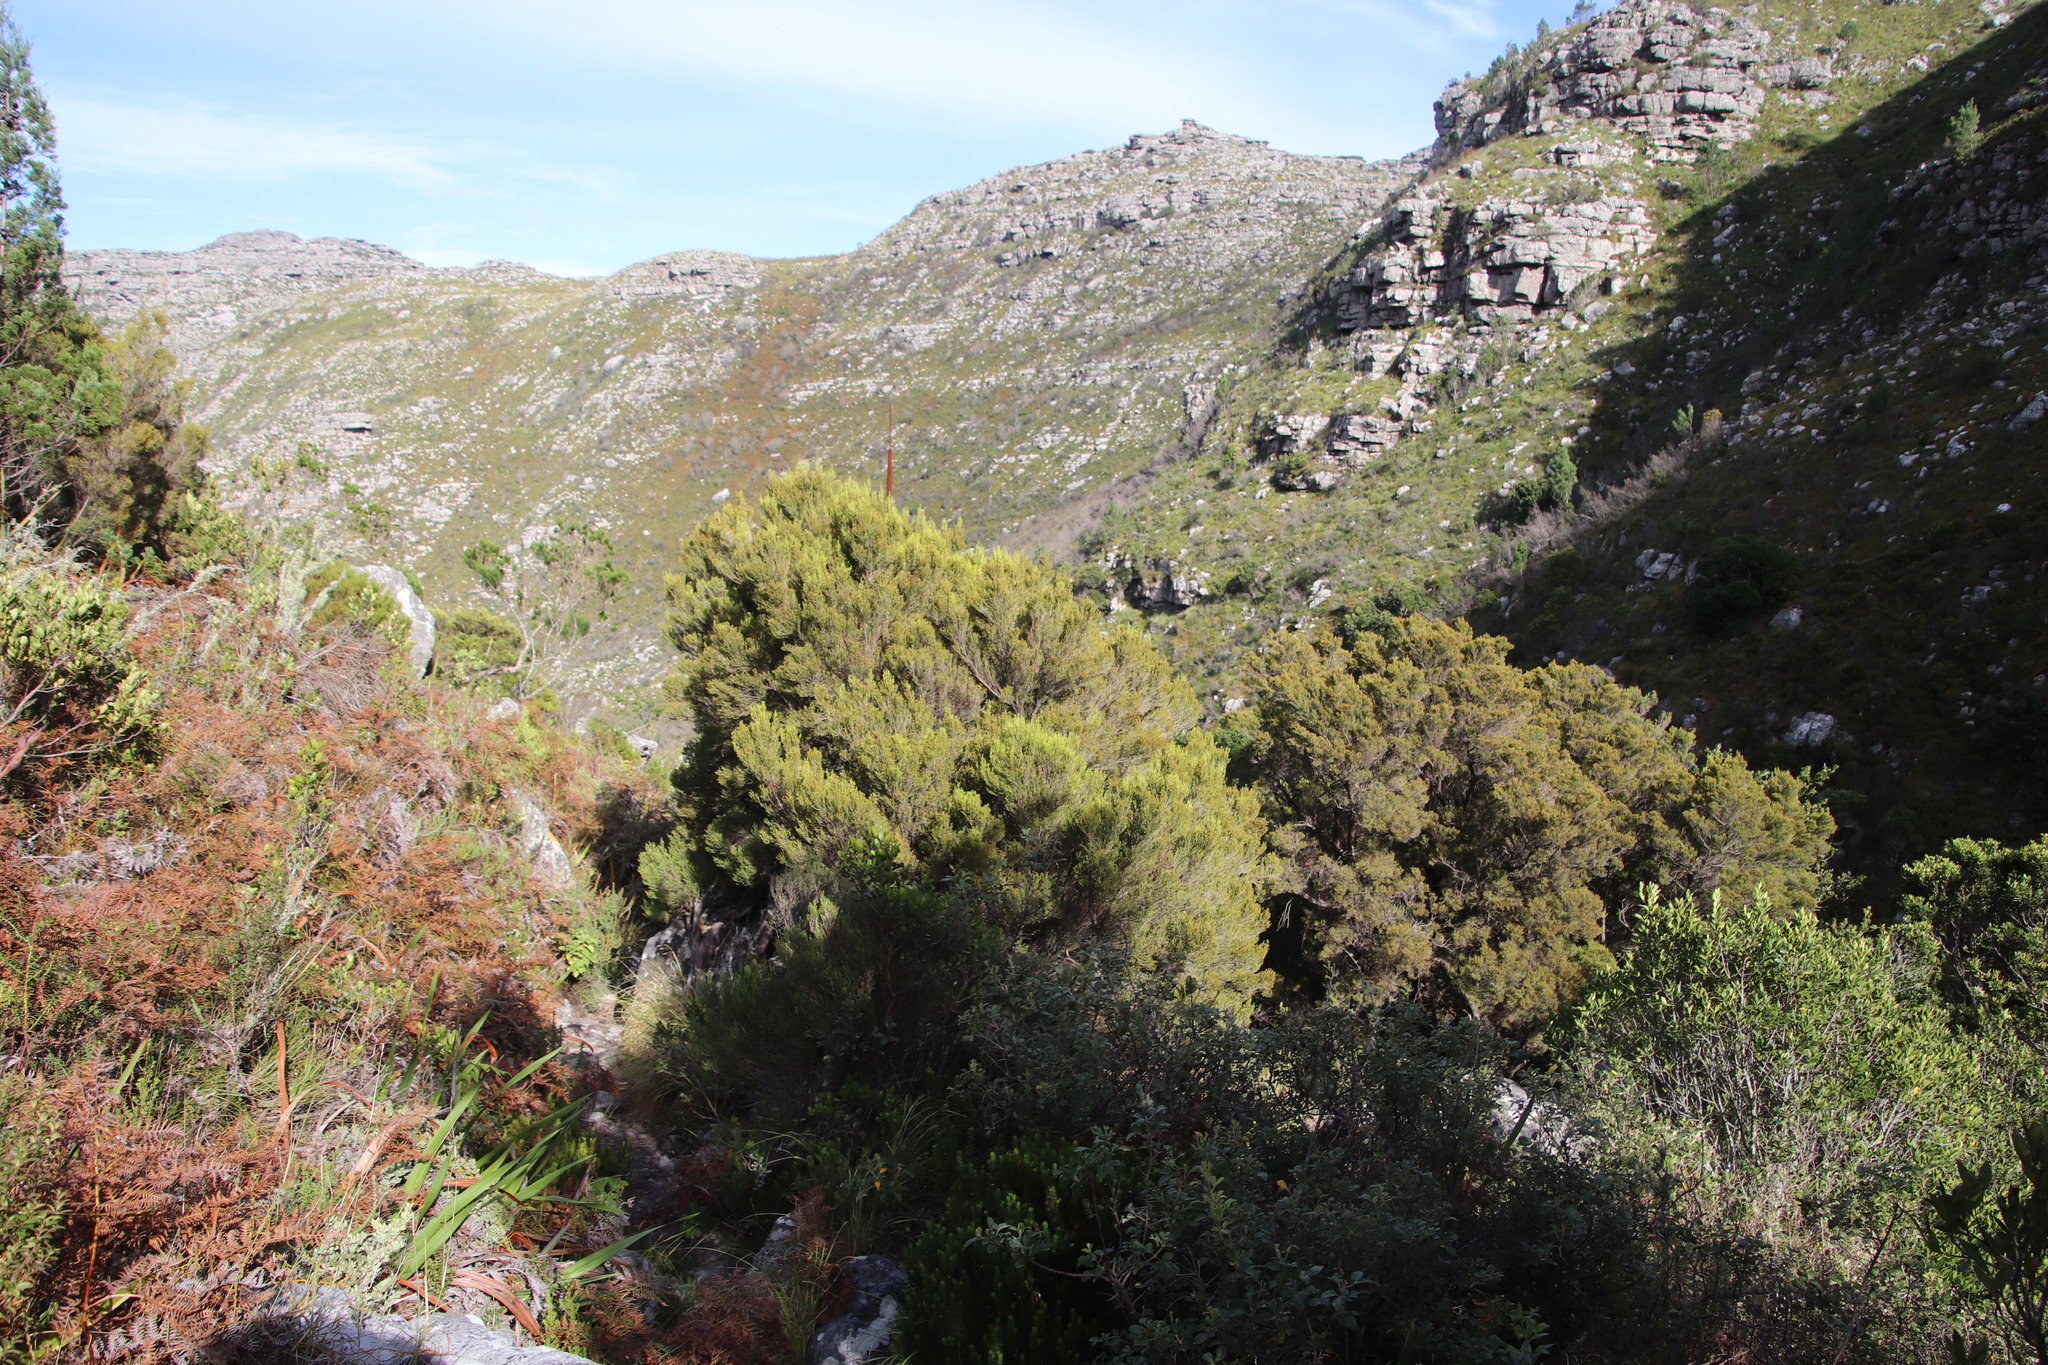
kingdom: Plantae
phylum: Tracheophyta
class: Magnoliopsida
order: Ericales
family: Ericaceae
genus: Erica
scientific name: Erica tristis
